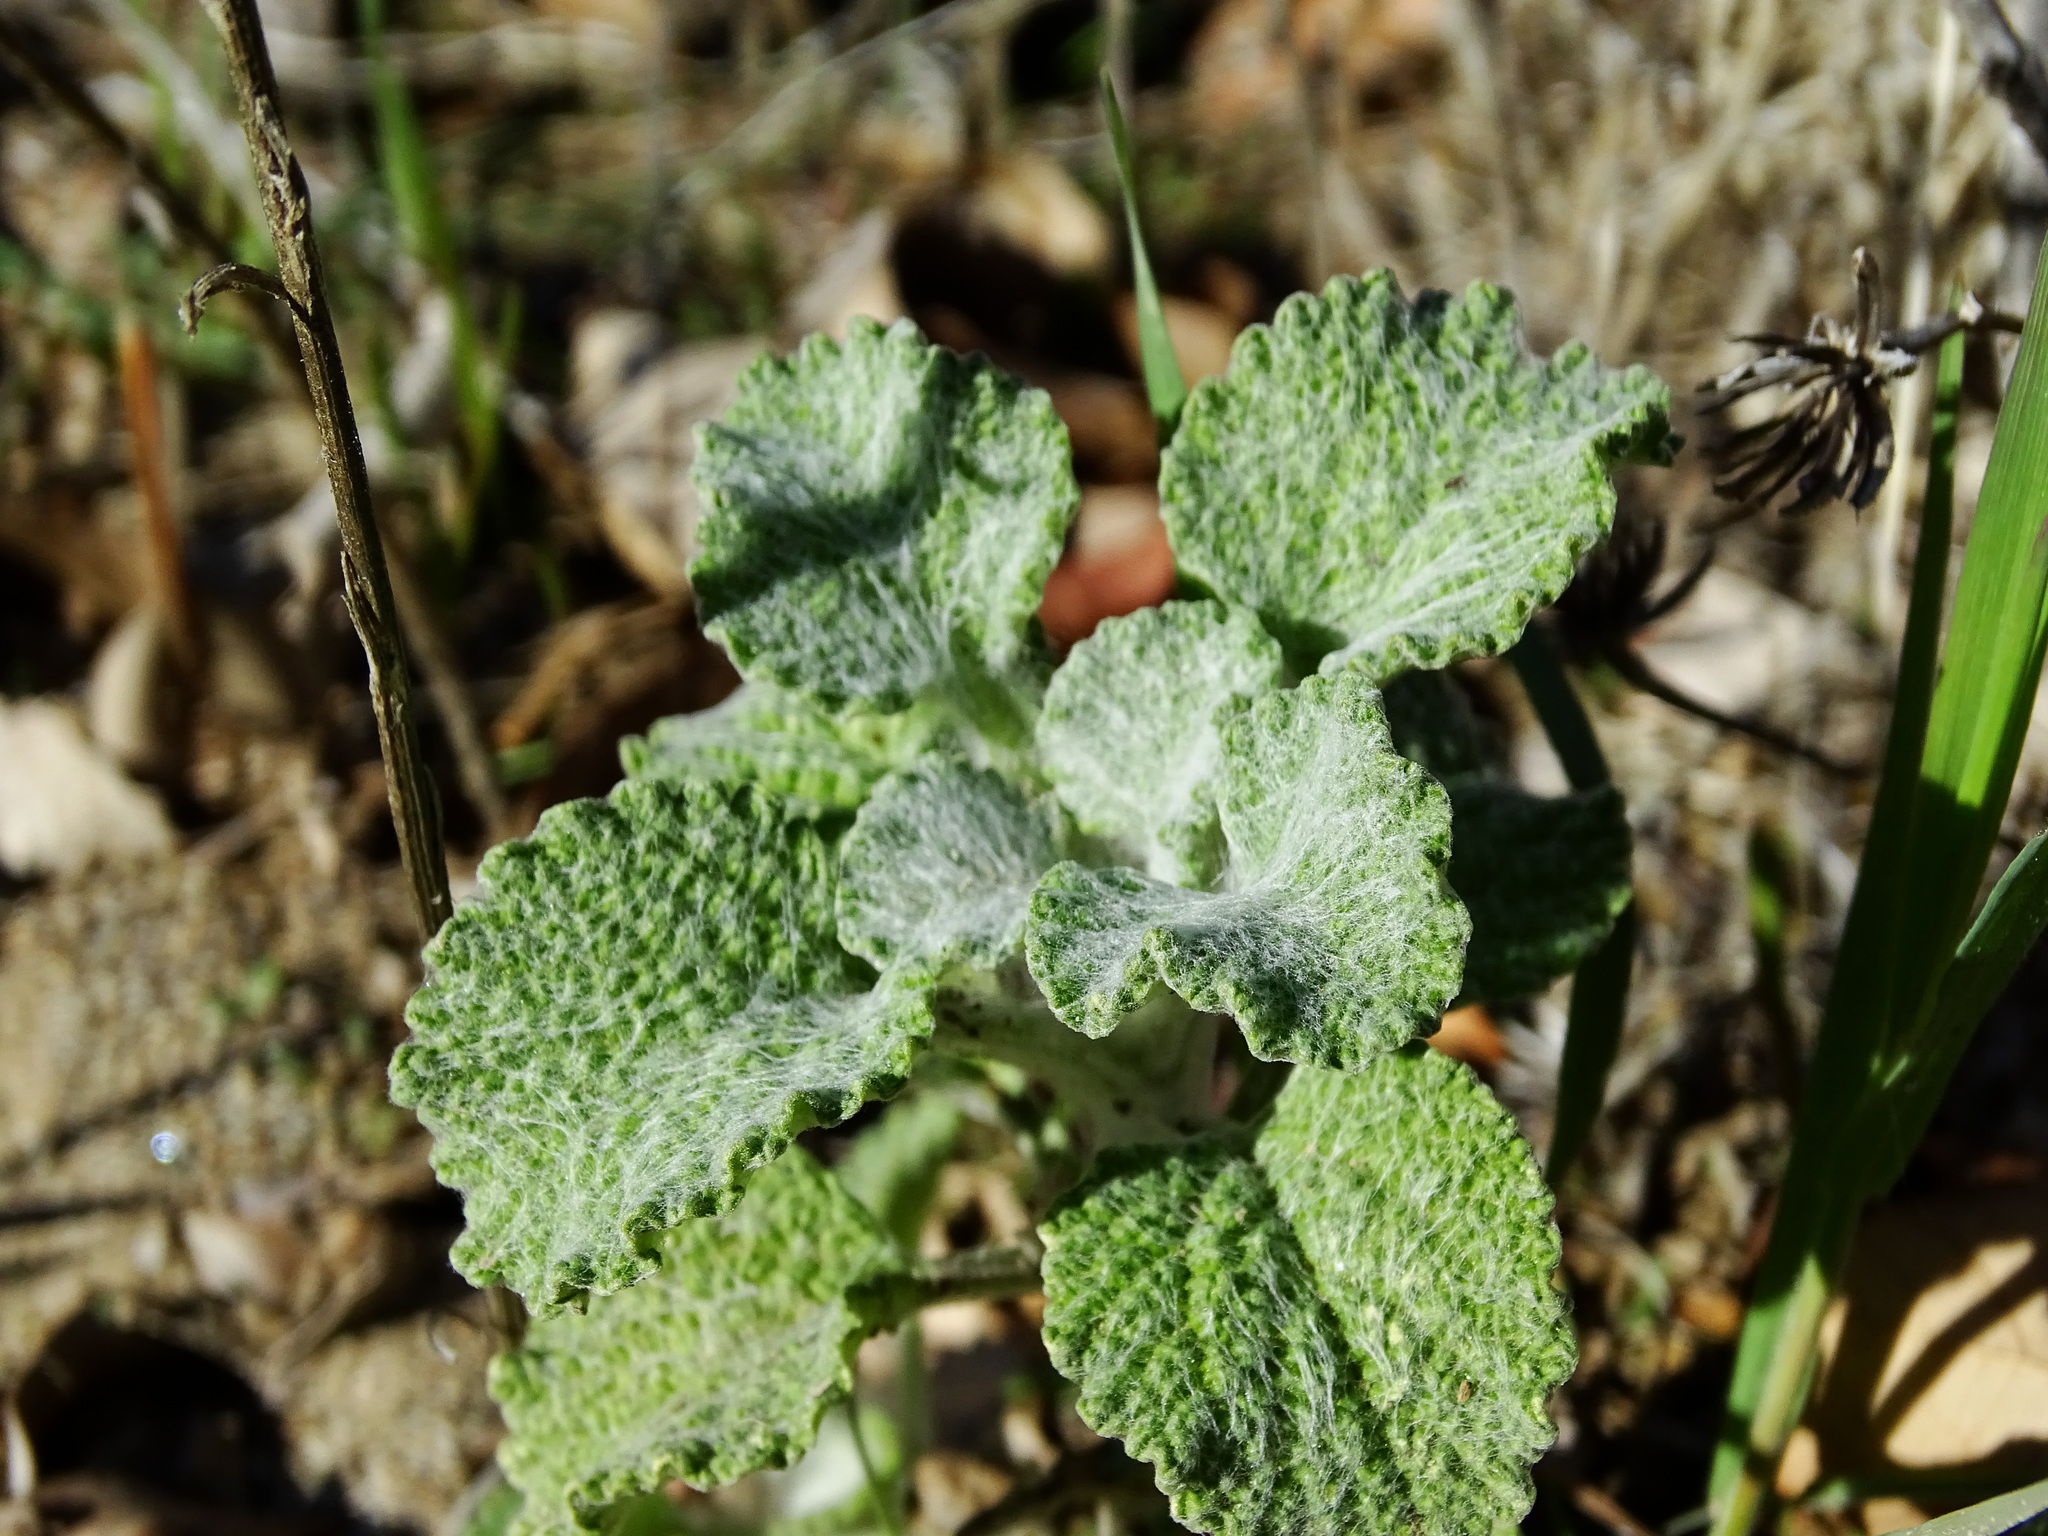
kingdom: Plantae
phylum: Tracheophyta
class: Magnoliopsida
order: Lamiales
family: Lamiaceae
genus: Marrubium
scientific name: Marrubium vulgare
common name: Horehound
